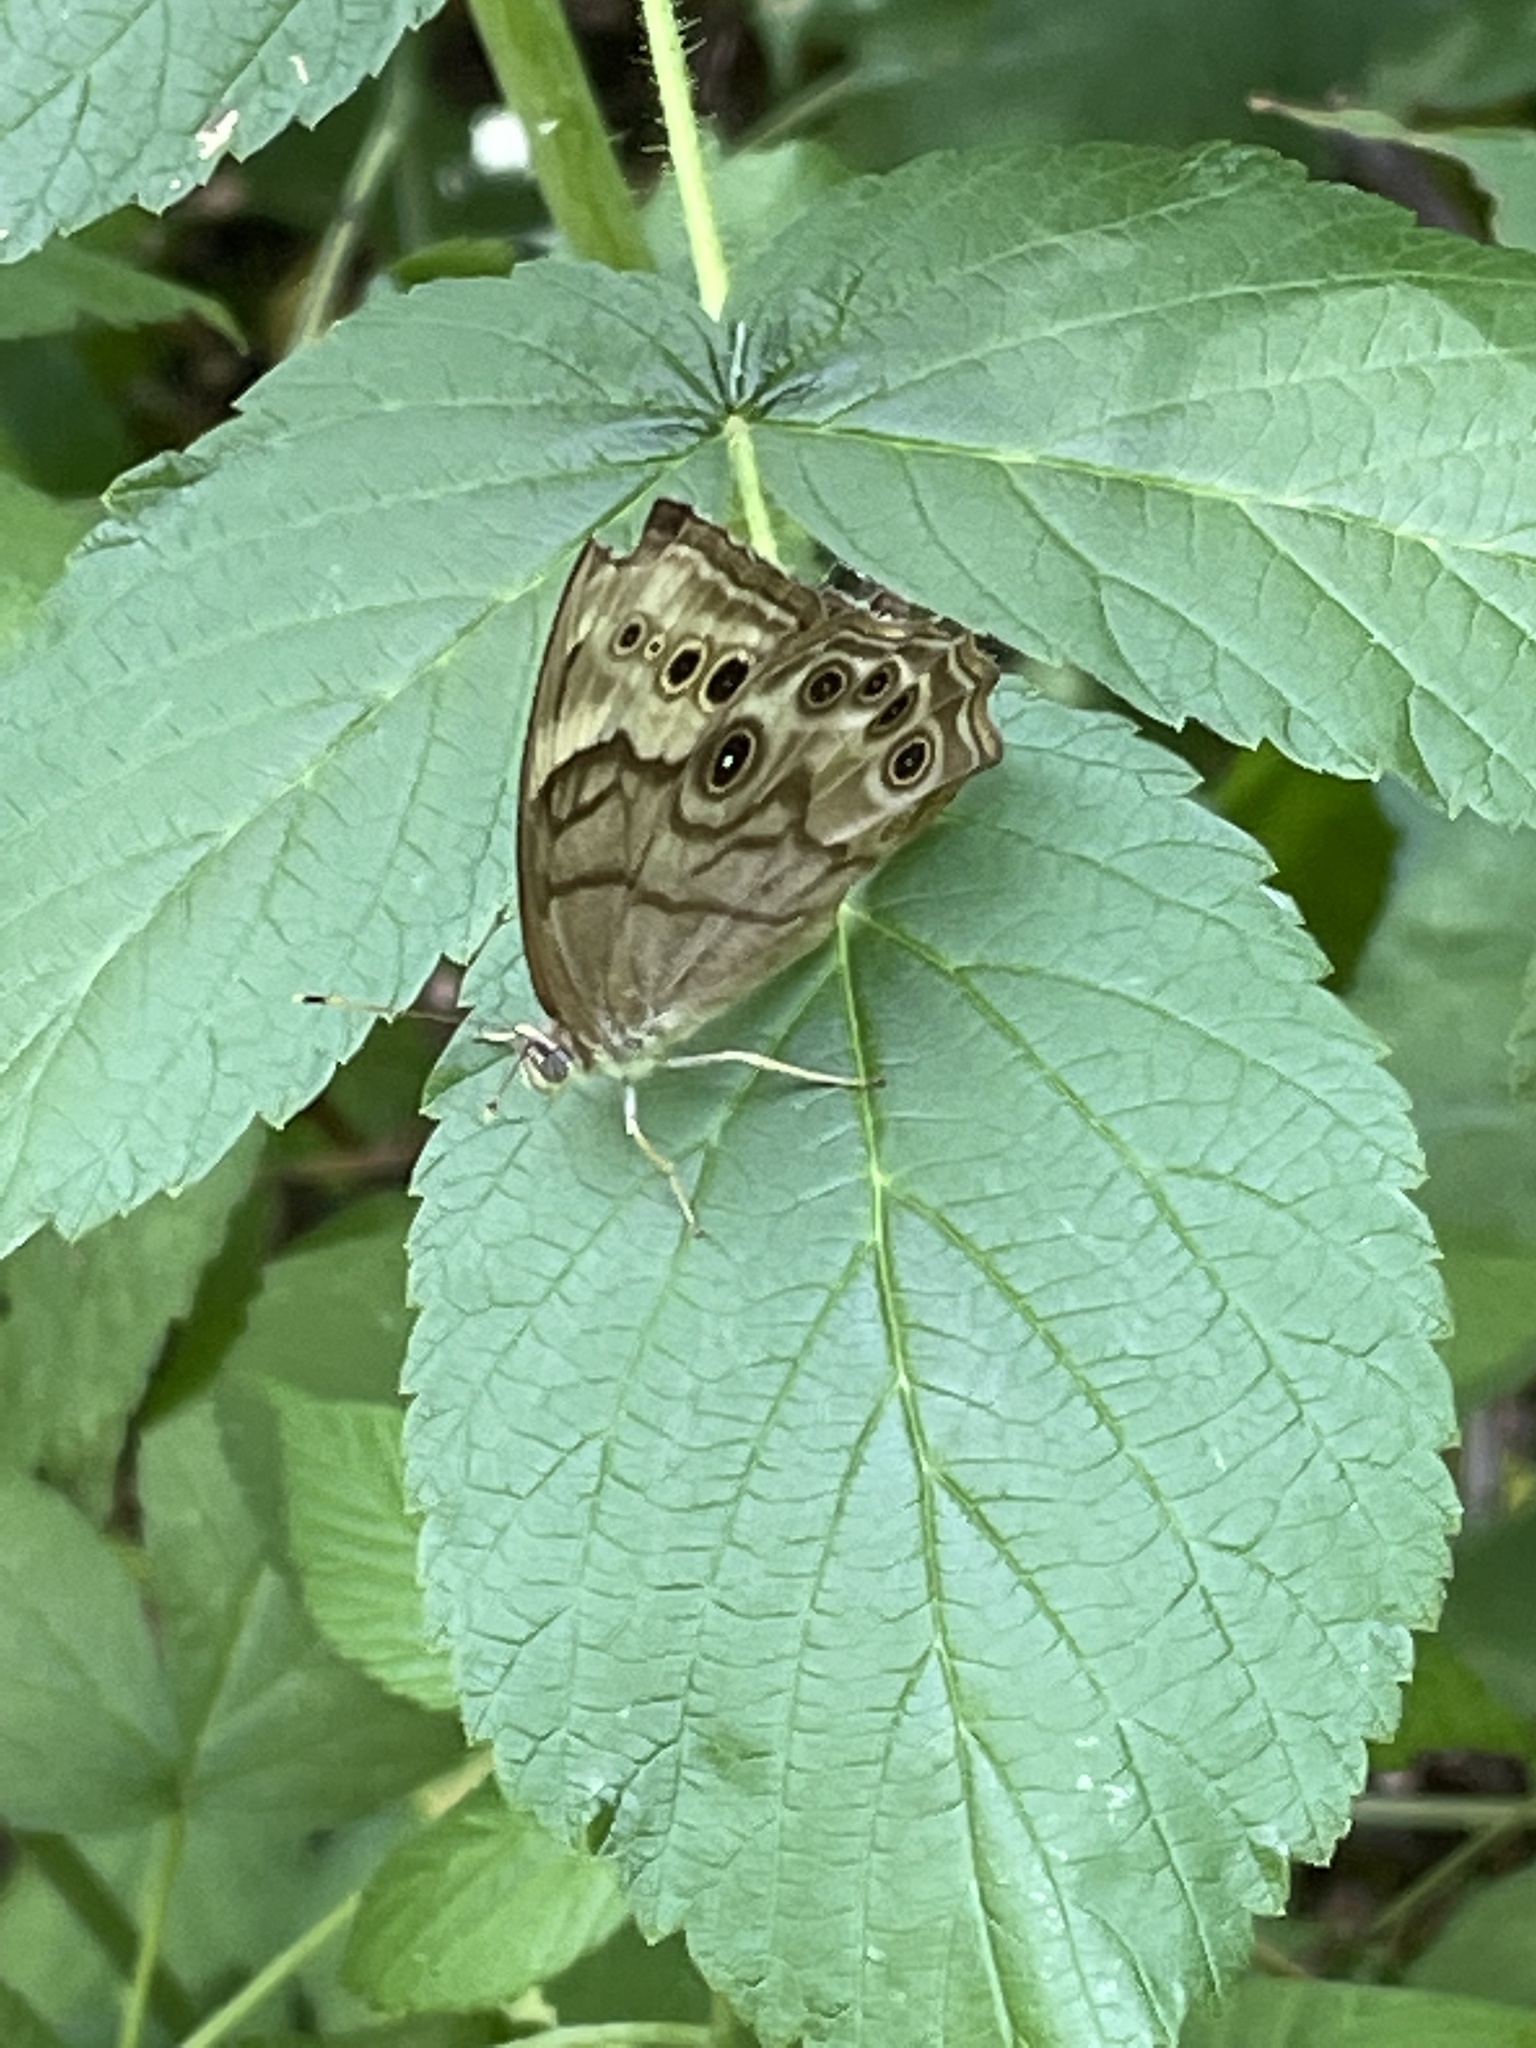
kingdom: Animalia
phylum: Arthropoda
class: Insecta
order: Lepidoptera
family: Nymphalidae
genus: Lethe
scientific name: Lethe anthedon
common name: Northern pearly-eye
